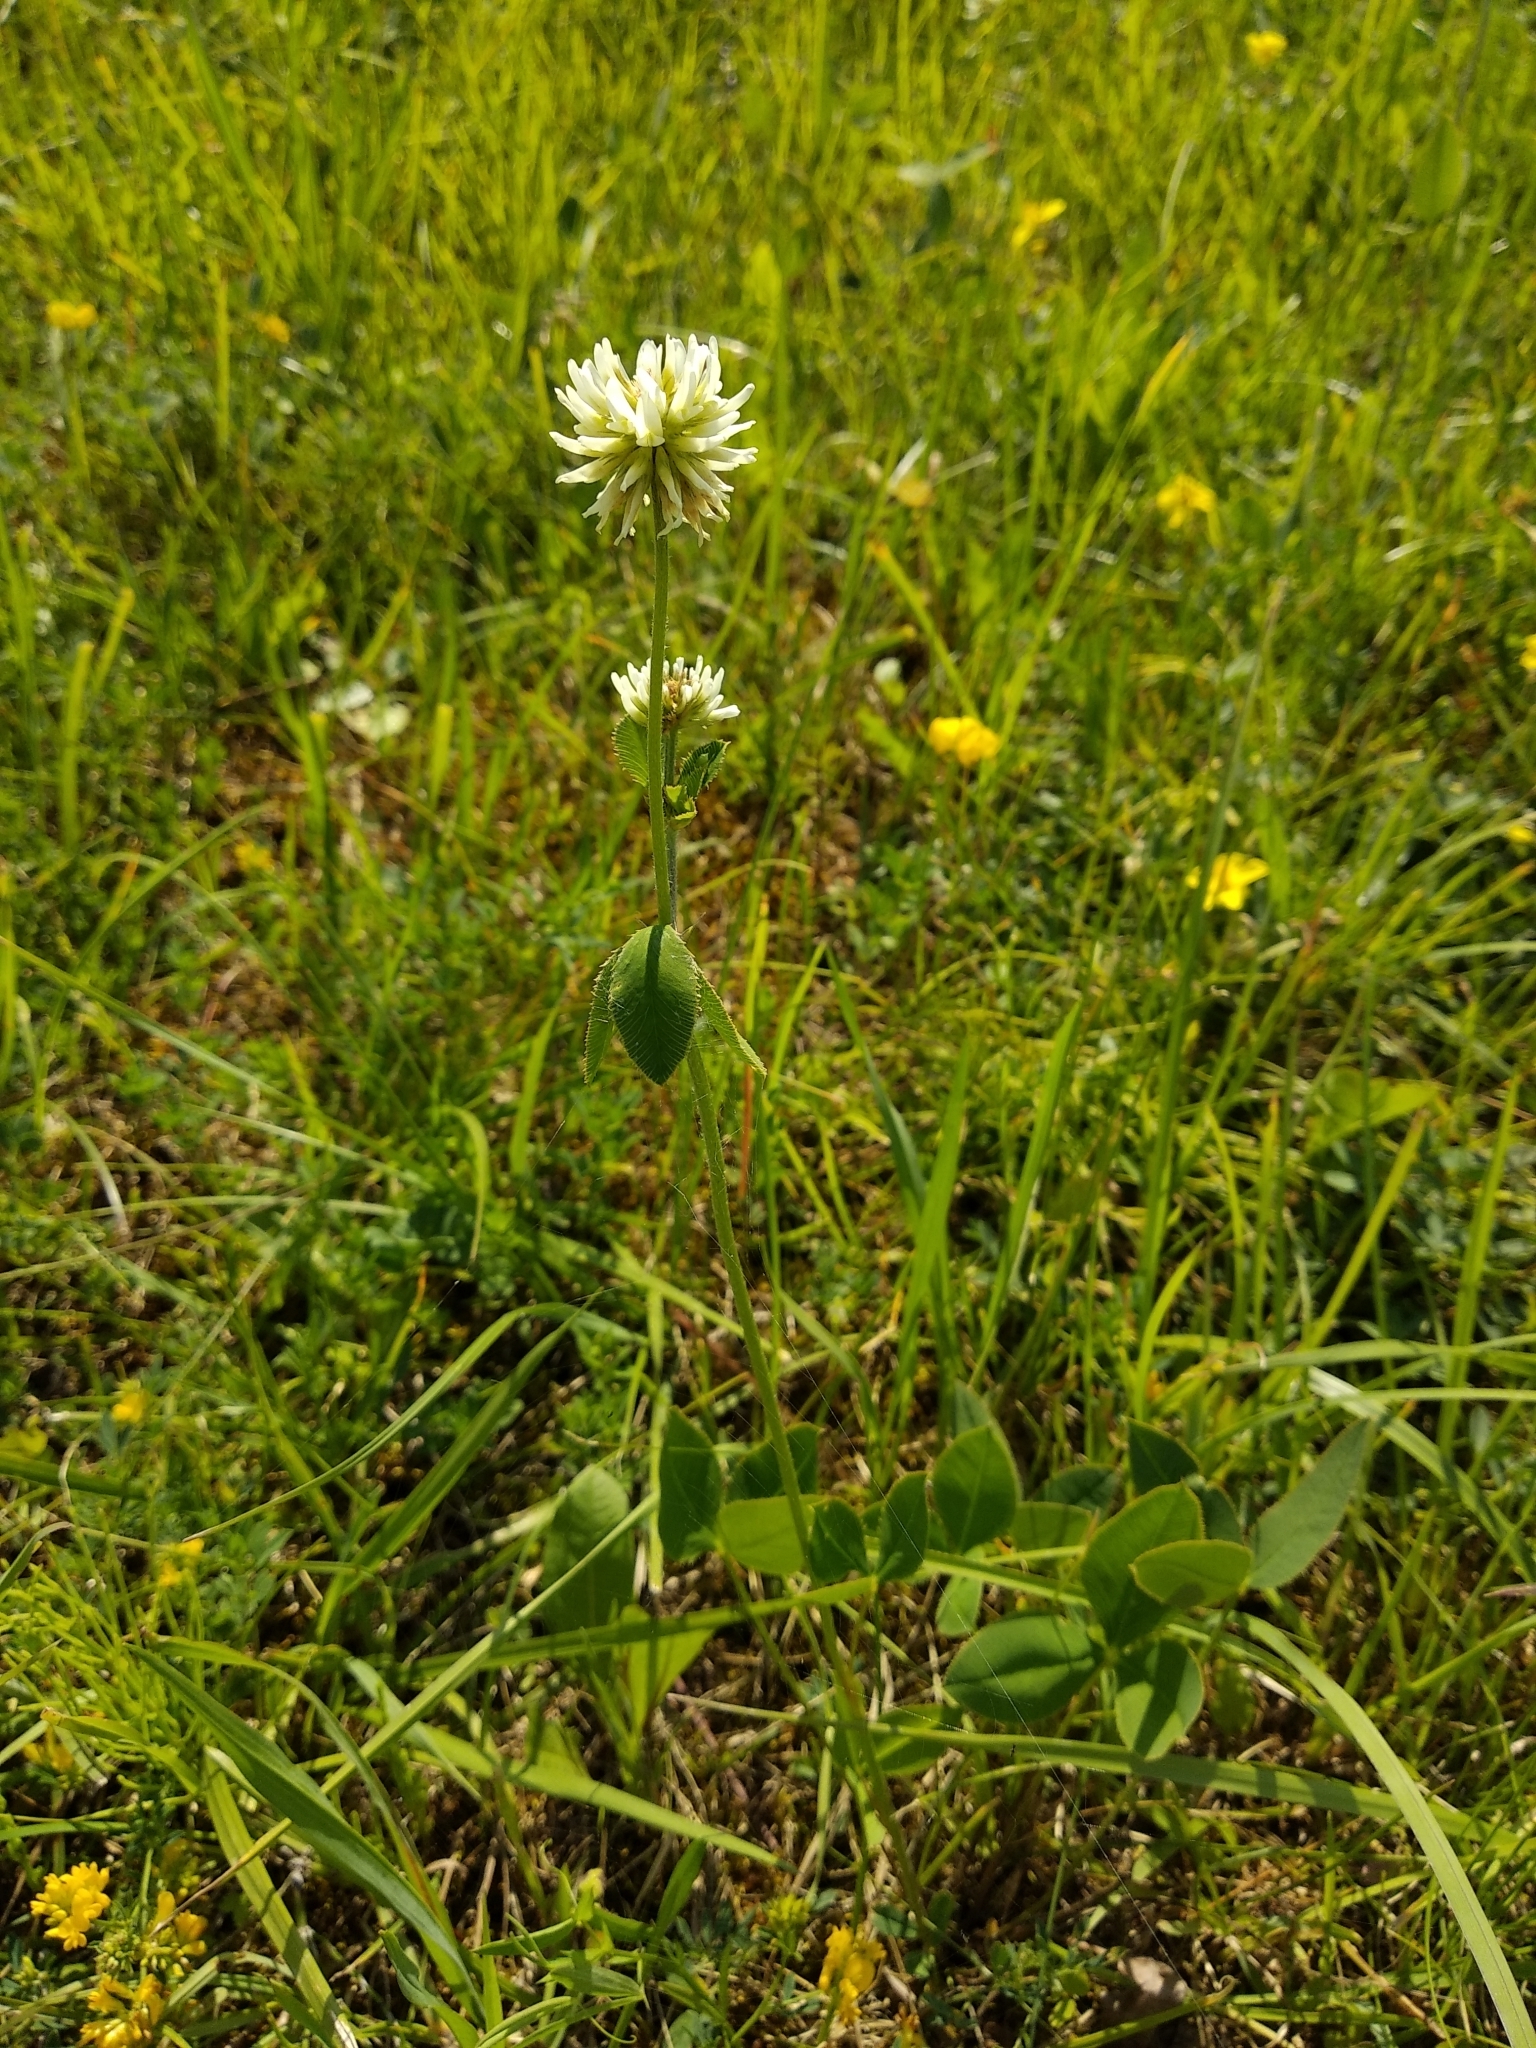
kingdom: Plantae
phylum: Tracheophyta
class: Magnoliopsida
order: Fabales
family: Fabaceae
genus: Trifolium
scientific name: Trifolium montanum
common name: Mountain clover
